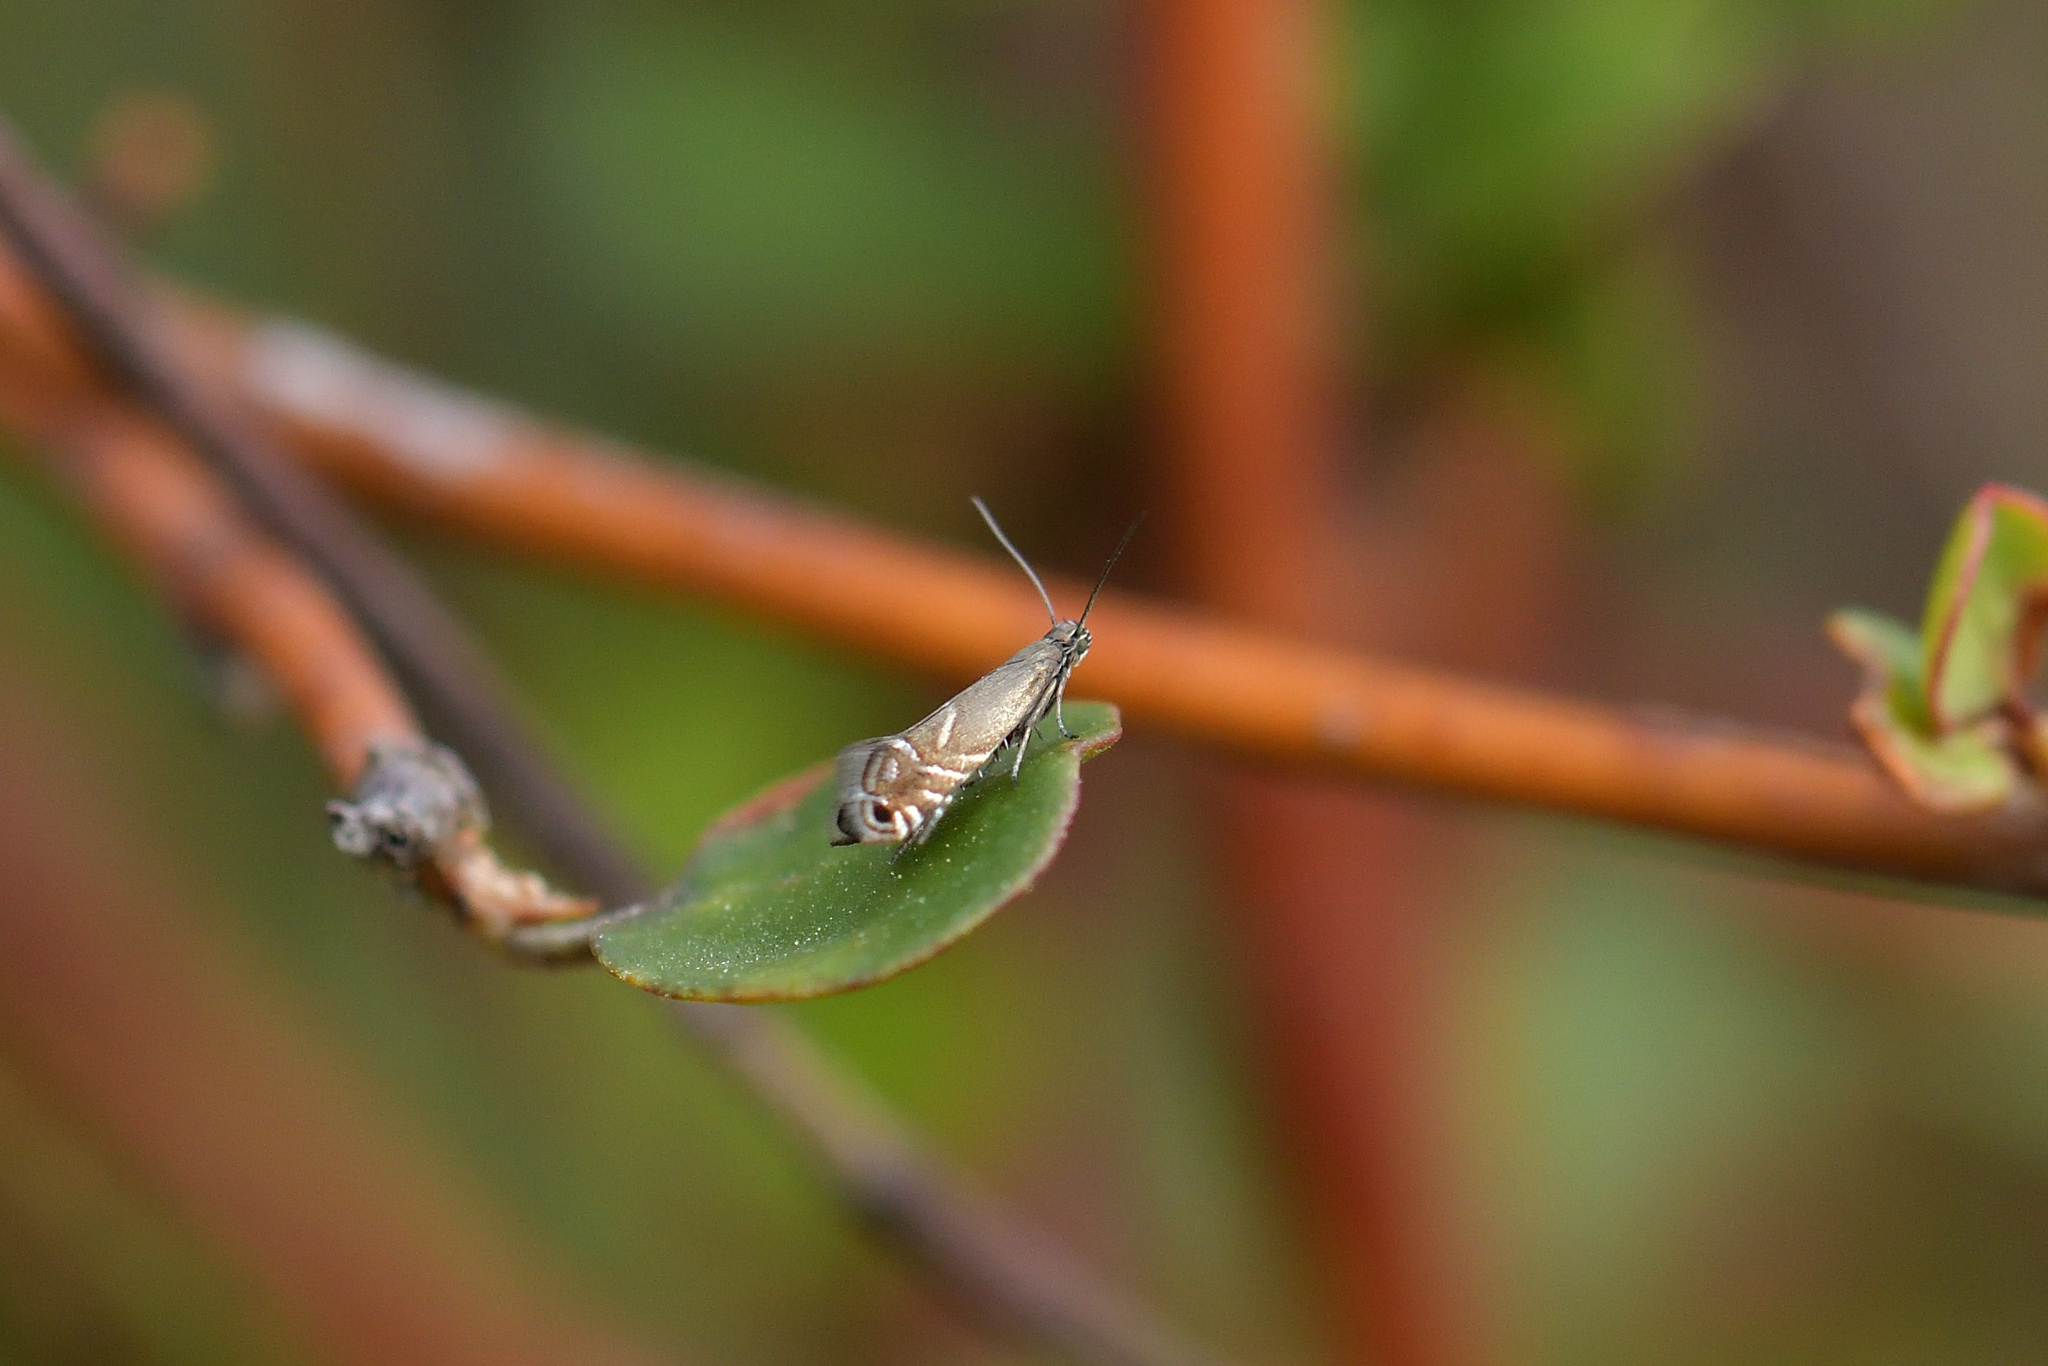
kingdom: Animalia
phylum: Arthropoda
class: Insecta
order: Lepidoptera
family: Glyphipterigidae
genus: Glyphipterix
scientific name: Glyphipterix simpliciella
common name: Cocksfoot moth
